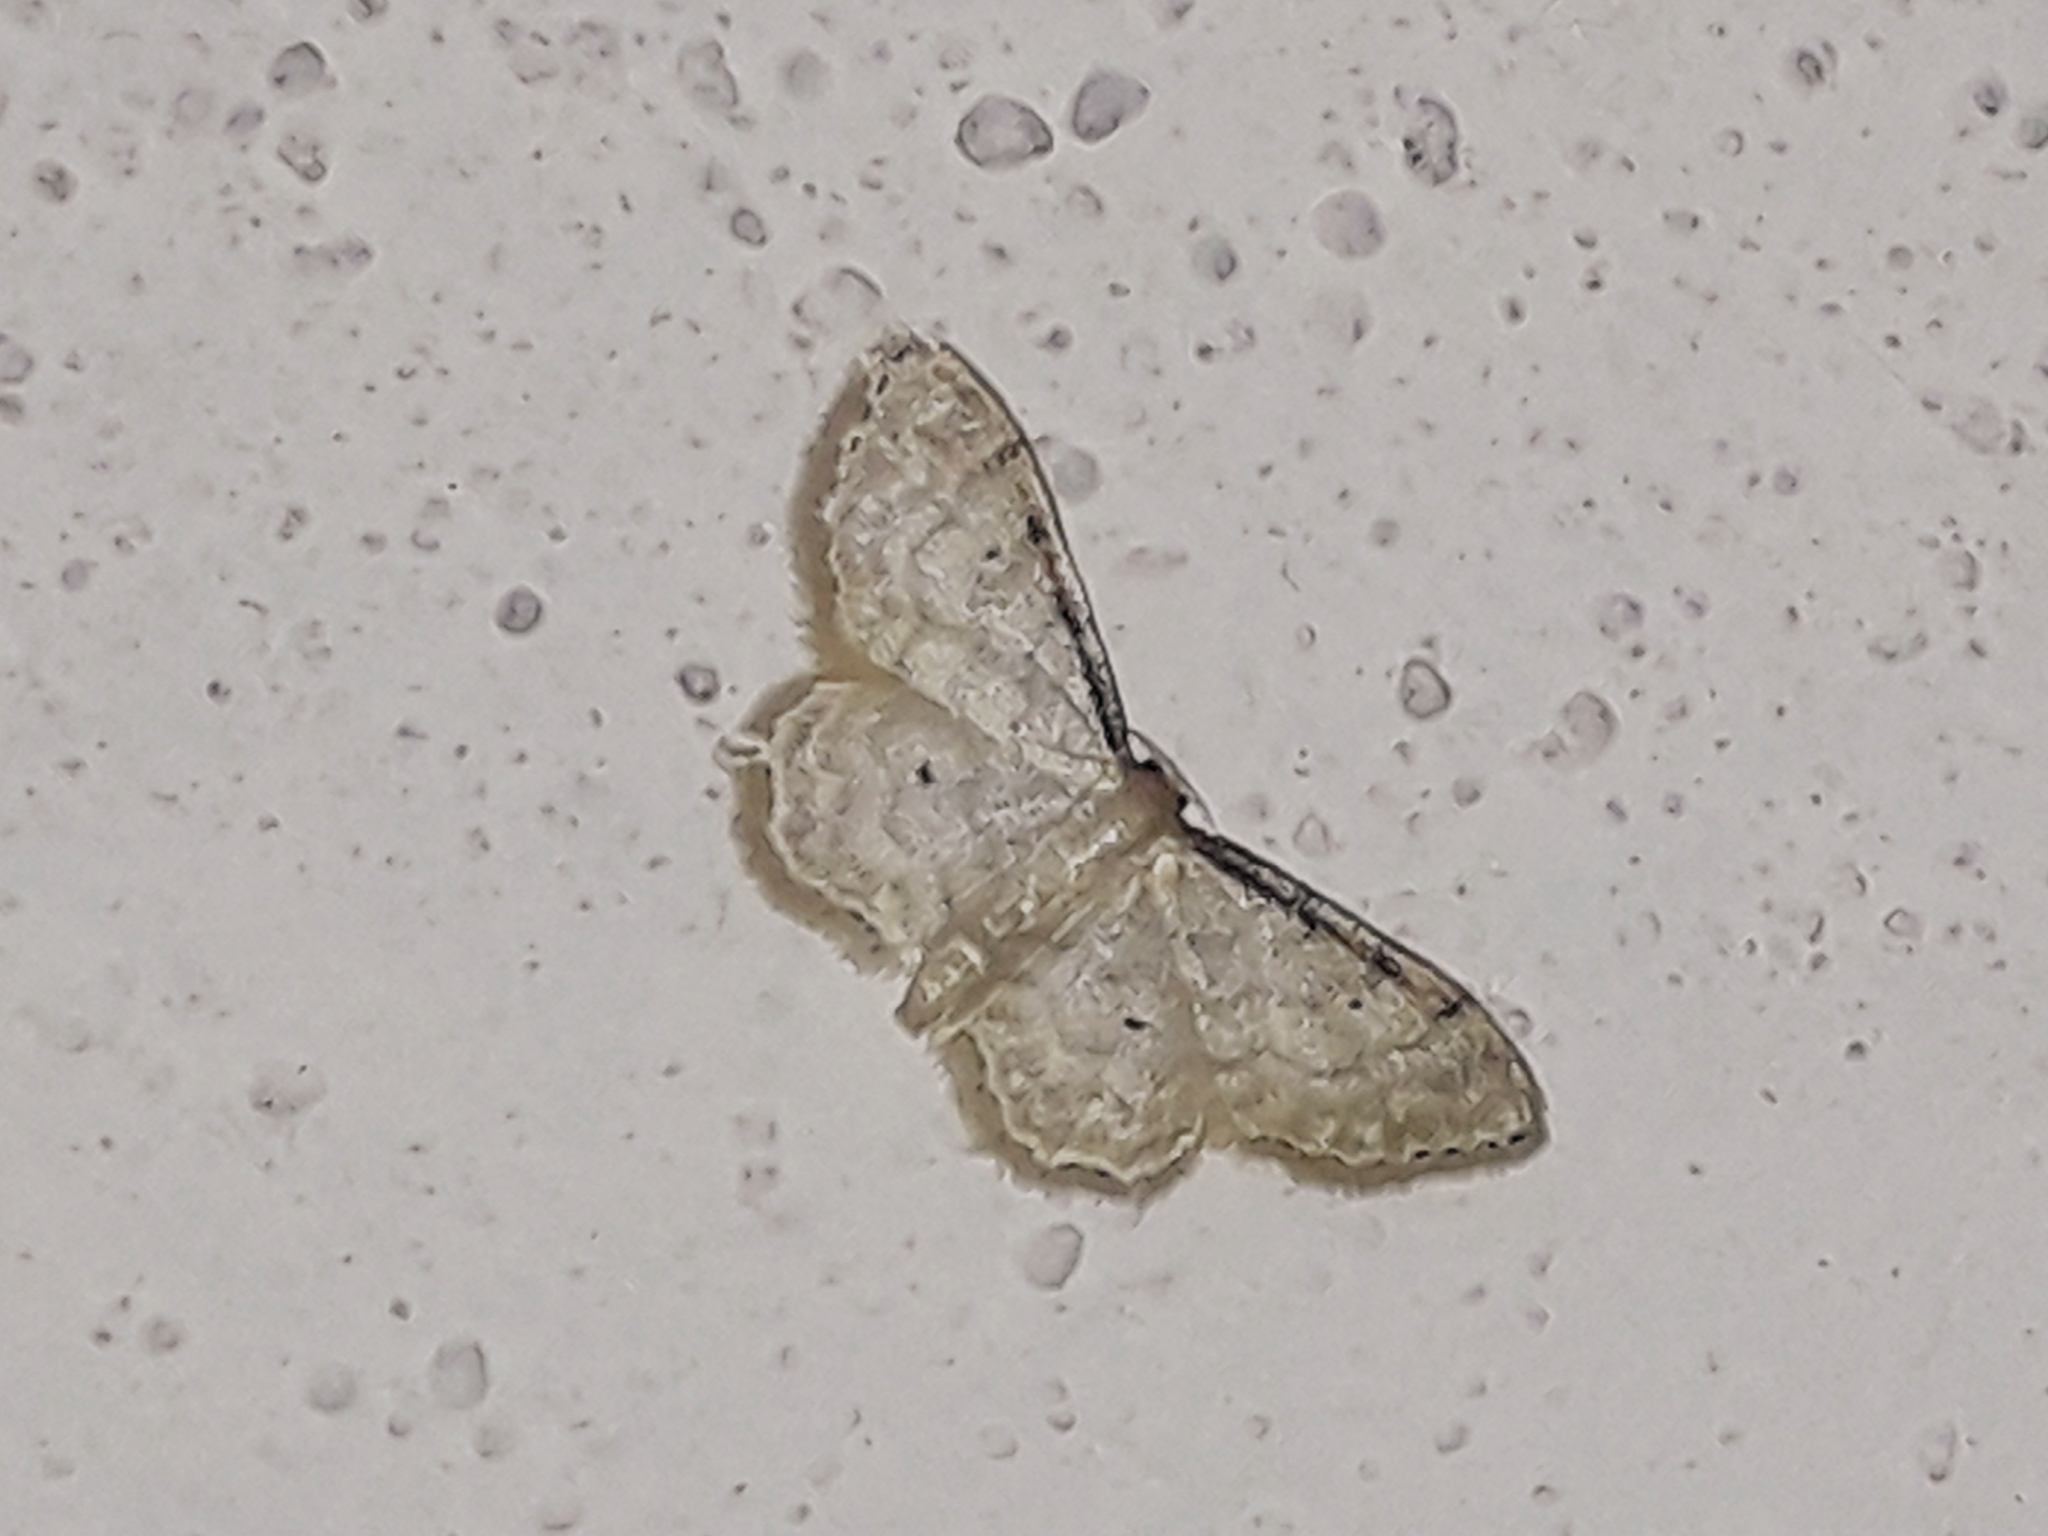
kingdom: Animalia
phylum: Arthropoda
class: Insecta
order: Lepidoptera
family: Geometridae
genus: Idaea
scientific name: Idaea fuscovenosa
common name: Dwarf cream wave
